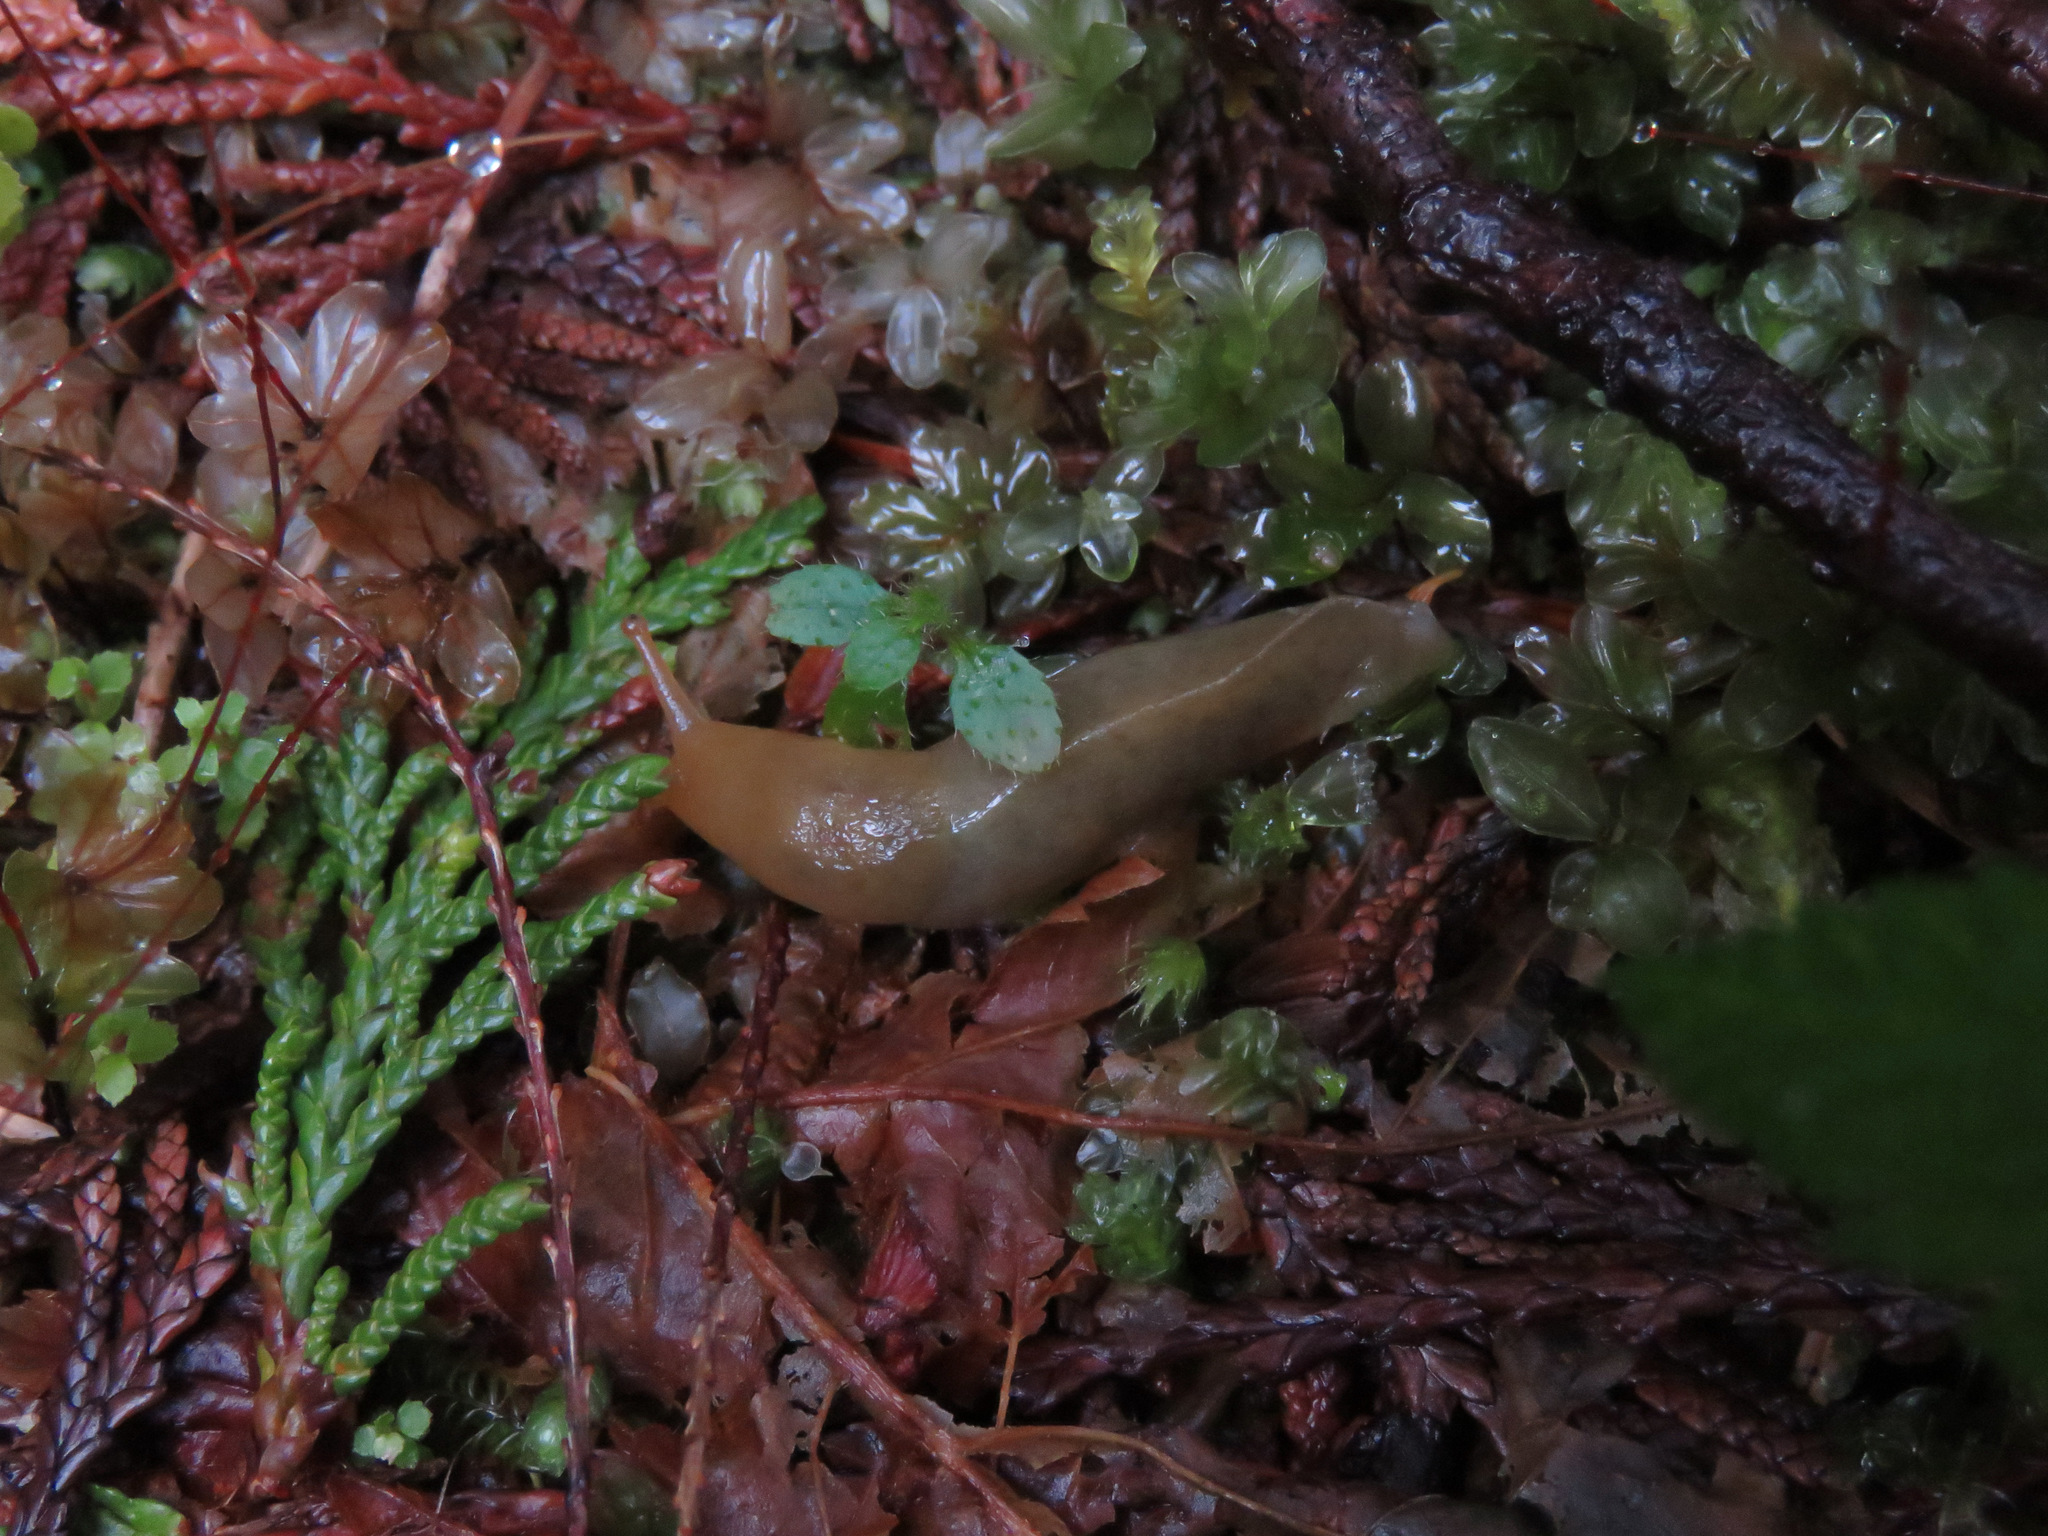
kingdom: Animalia
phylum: Mollusca
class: Gastropoda
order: Stylommatophora
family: Ariolimacidae
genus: Ariolimax
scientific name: Ariolimax columbianus
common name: Pacific banana slug
